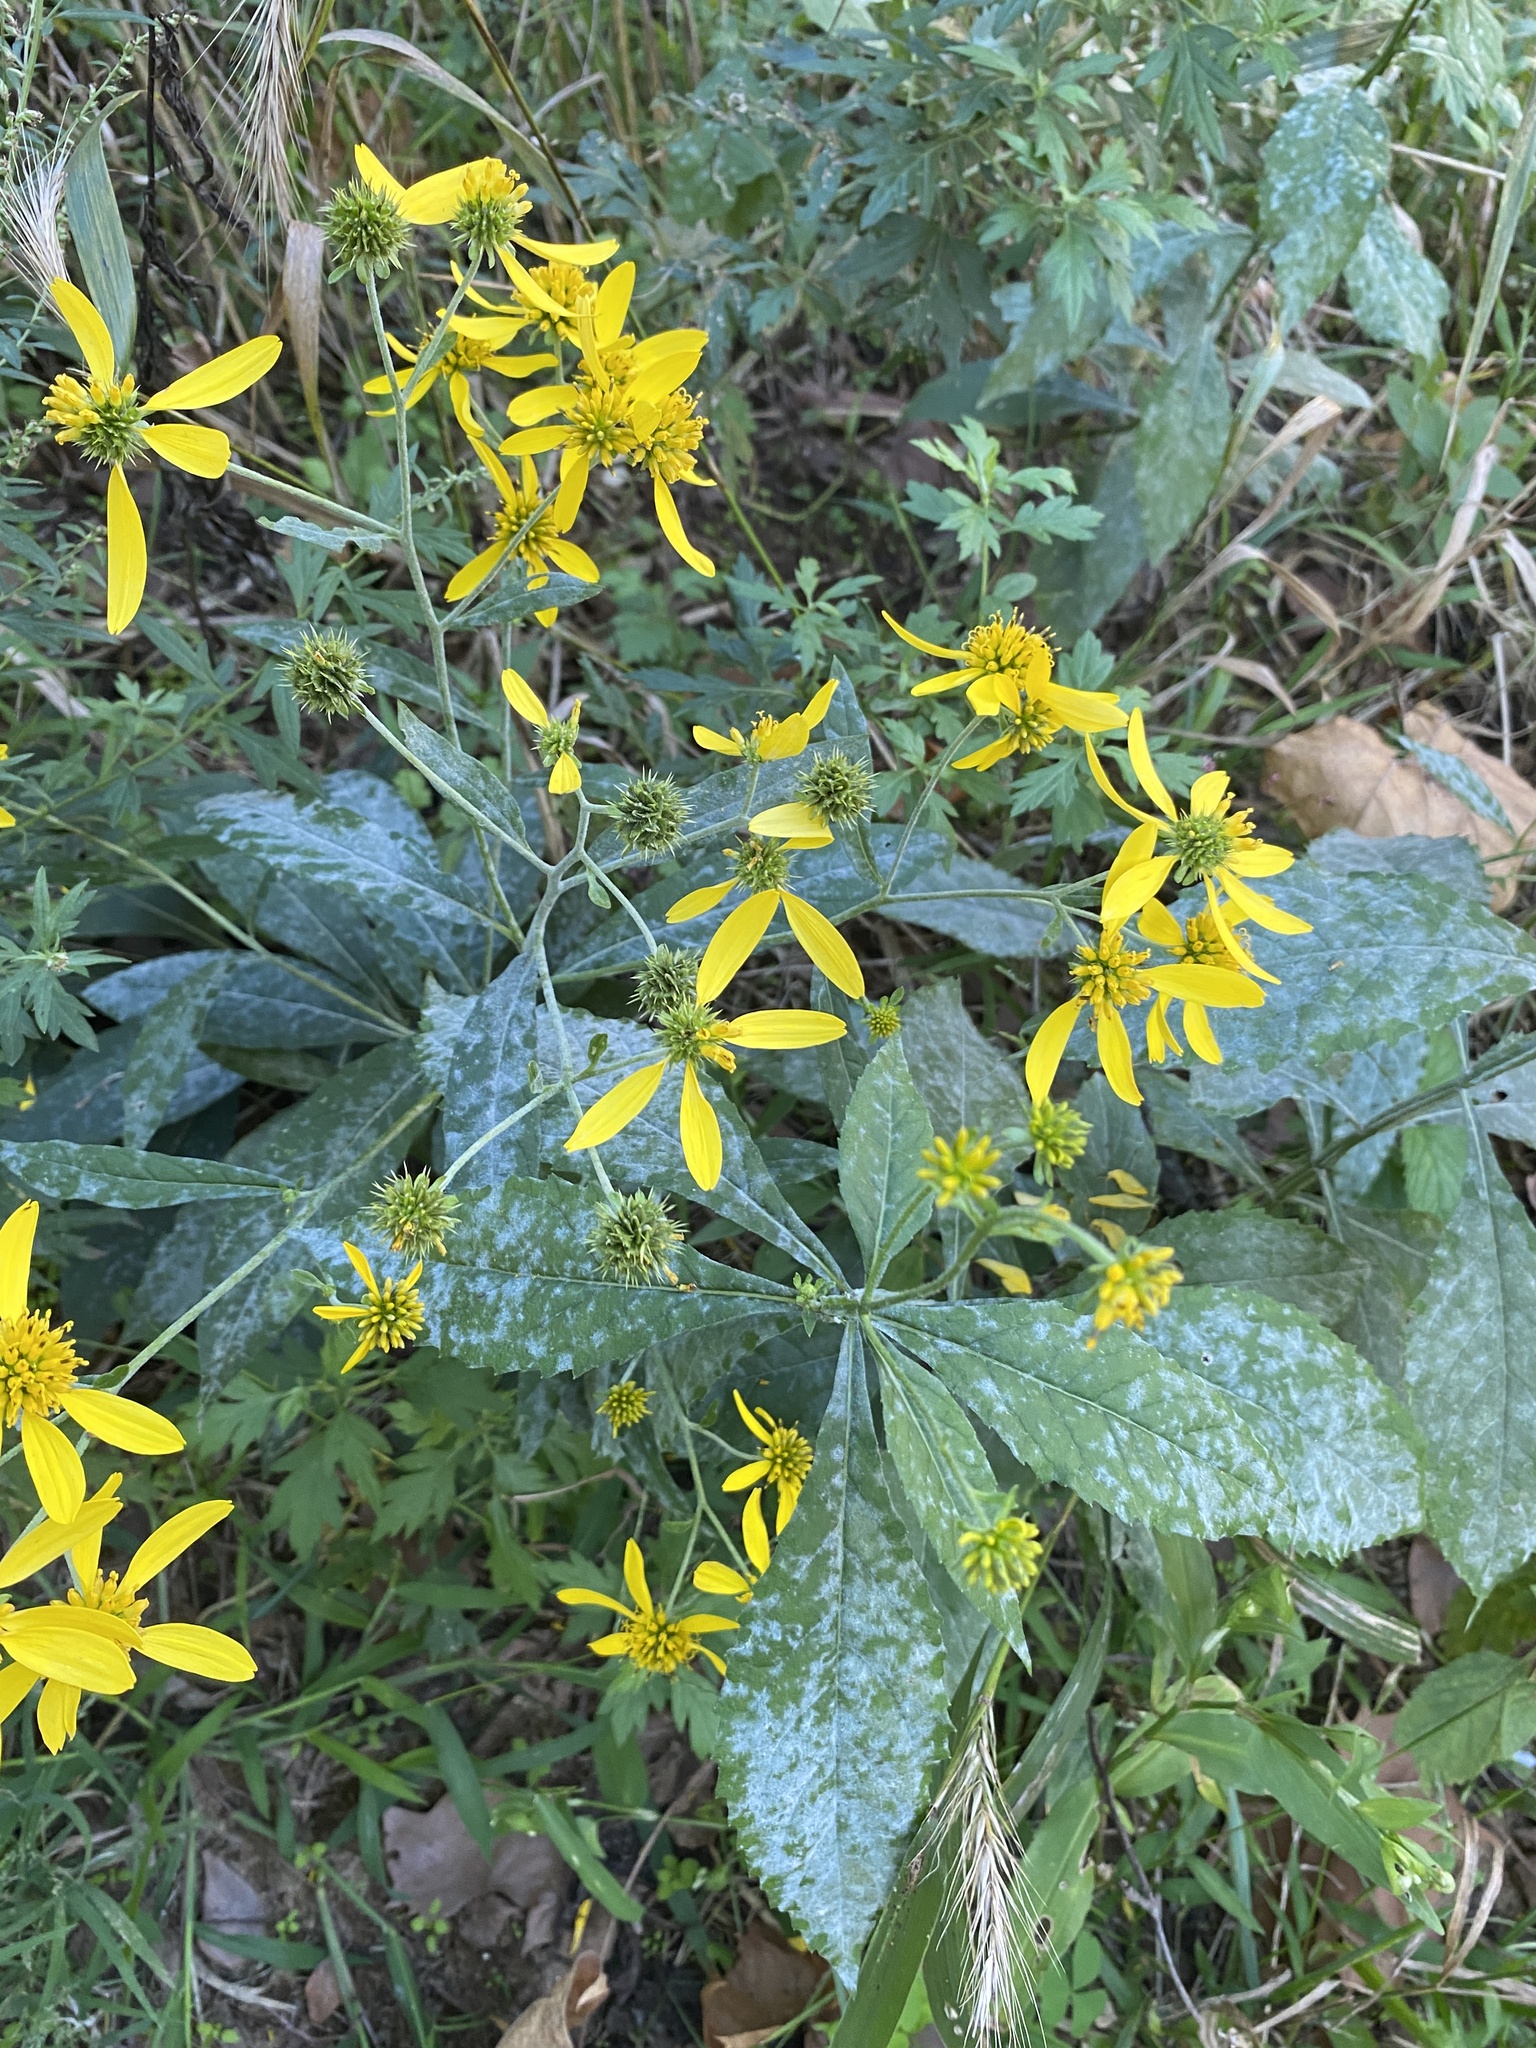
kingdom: Plantae
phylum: Tracheophyta
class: Magnoliopsida
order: Asterales
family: Asteraceae
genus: Verbesina
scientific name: Verbesina alternifolia
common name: Wingstem
